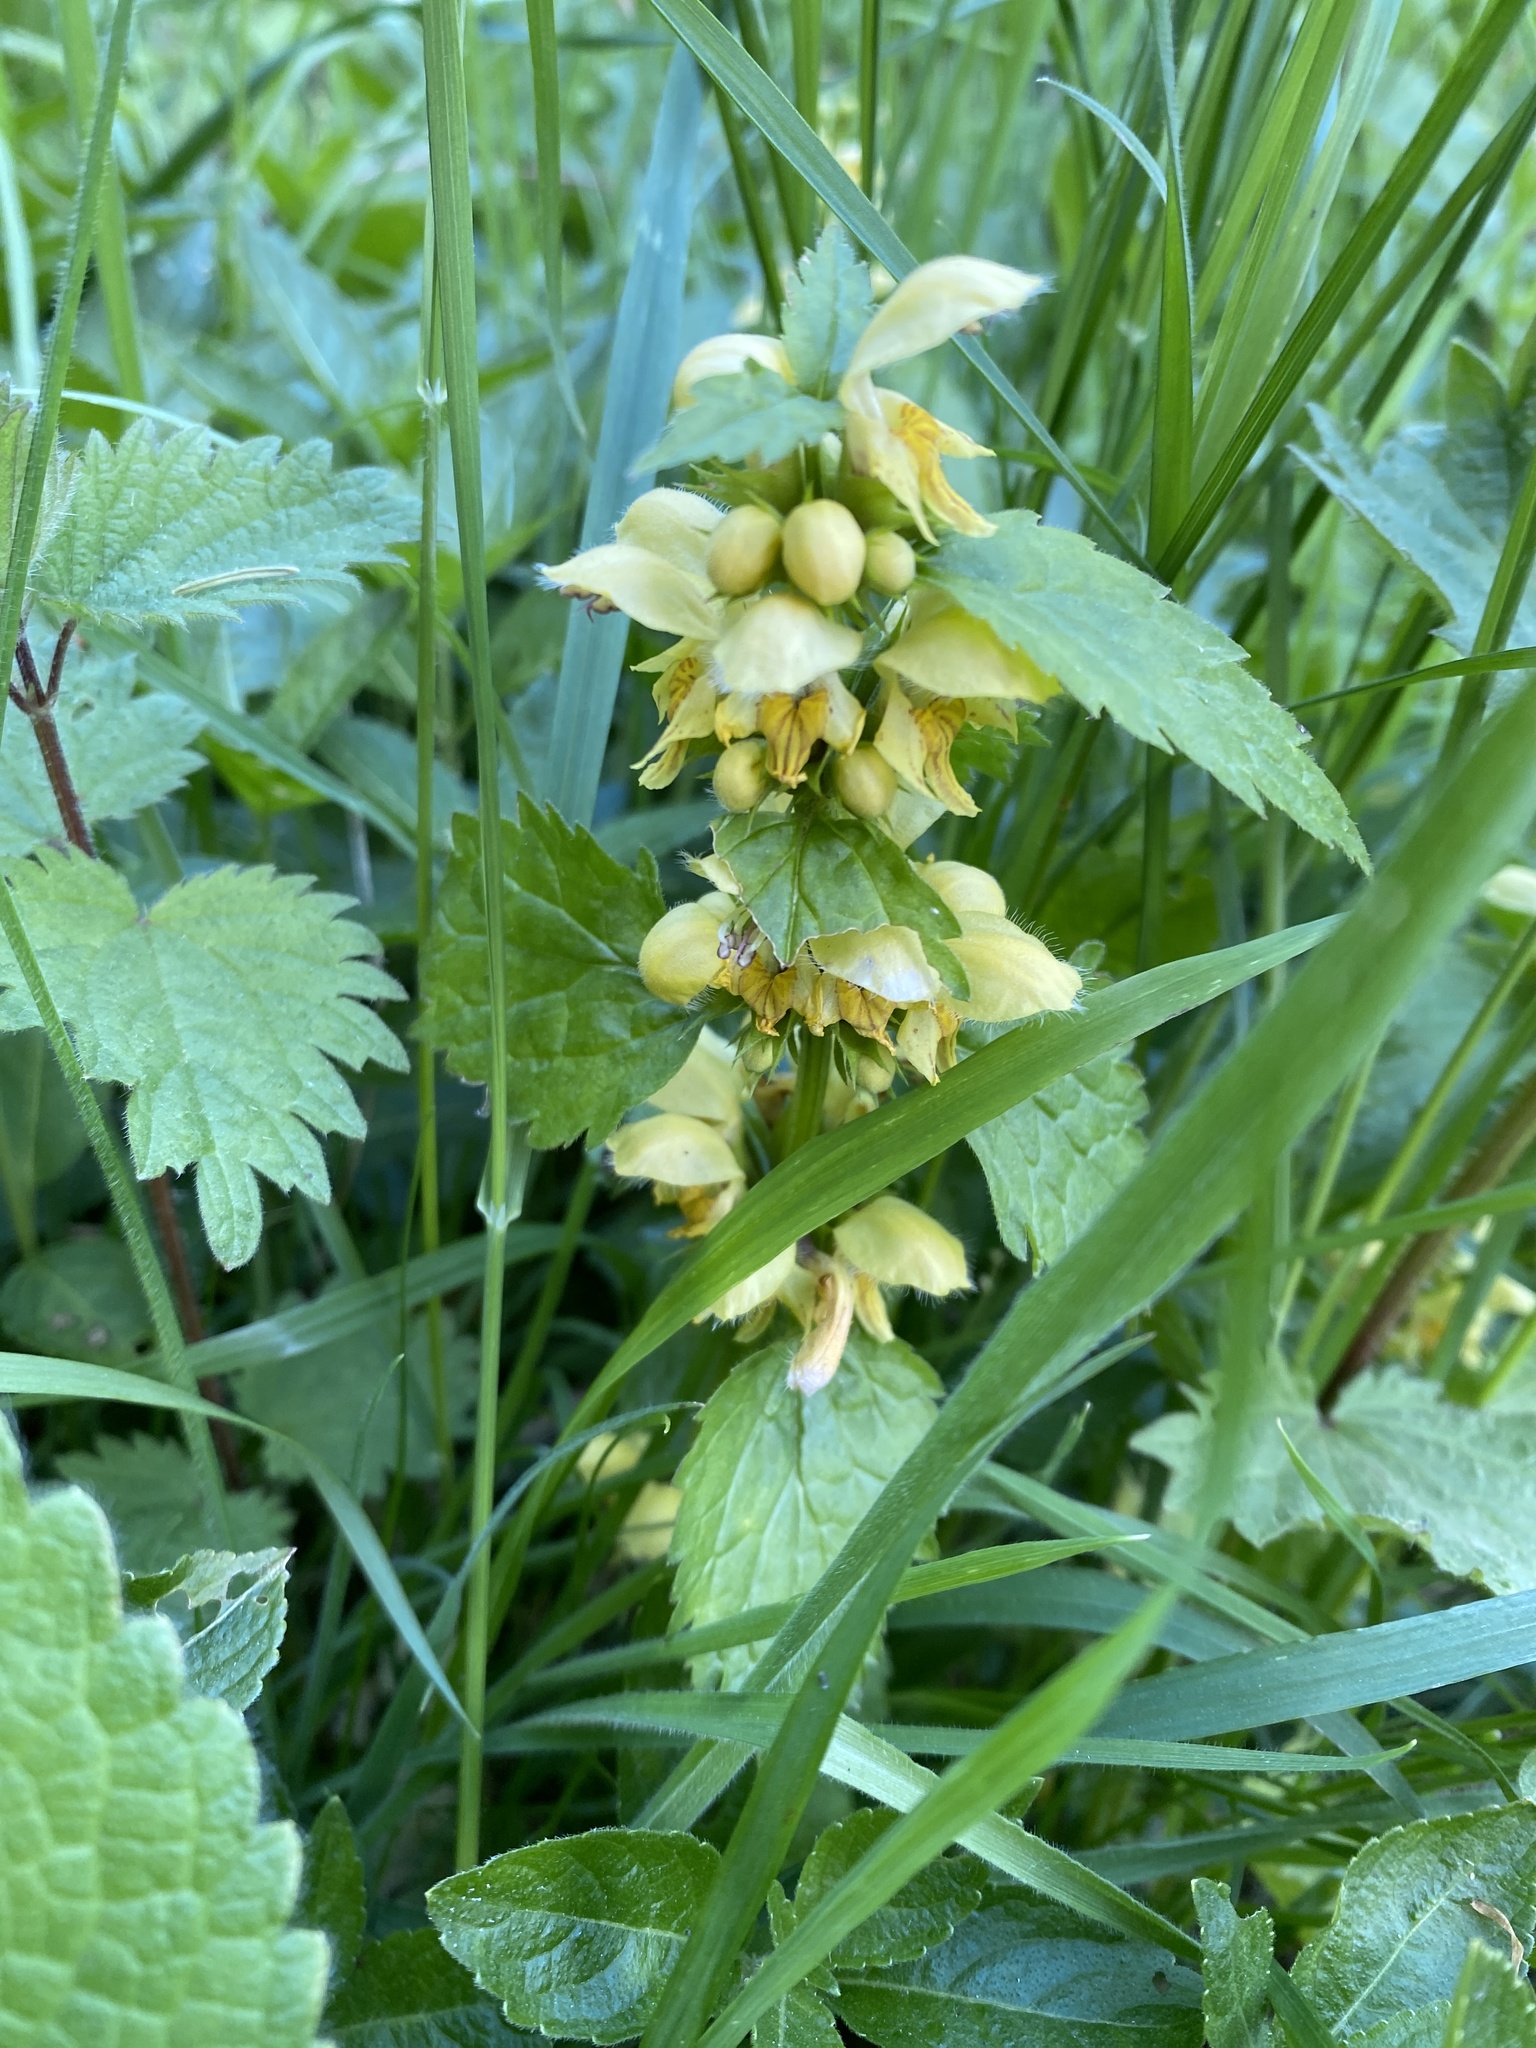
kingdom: Plantae
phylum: Tracheophyta
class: Magnoliopsida
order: Lamiales
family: Lamiaceae
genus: Lamium
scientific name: Lamium galeobdolon
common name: Yellow archangel
